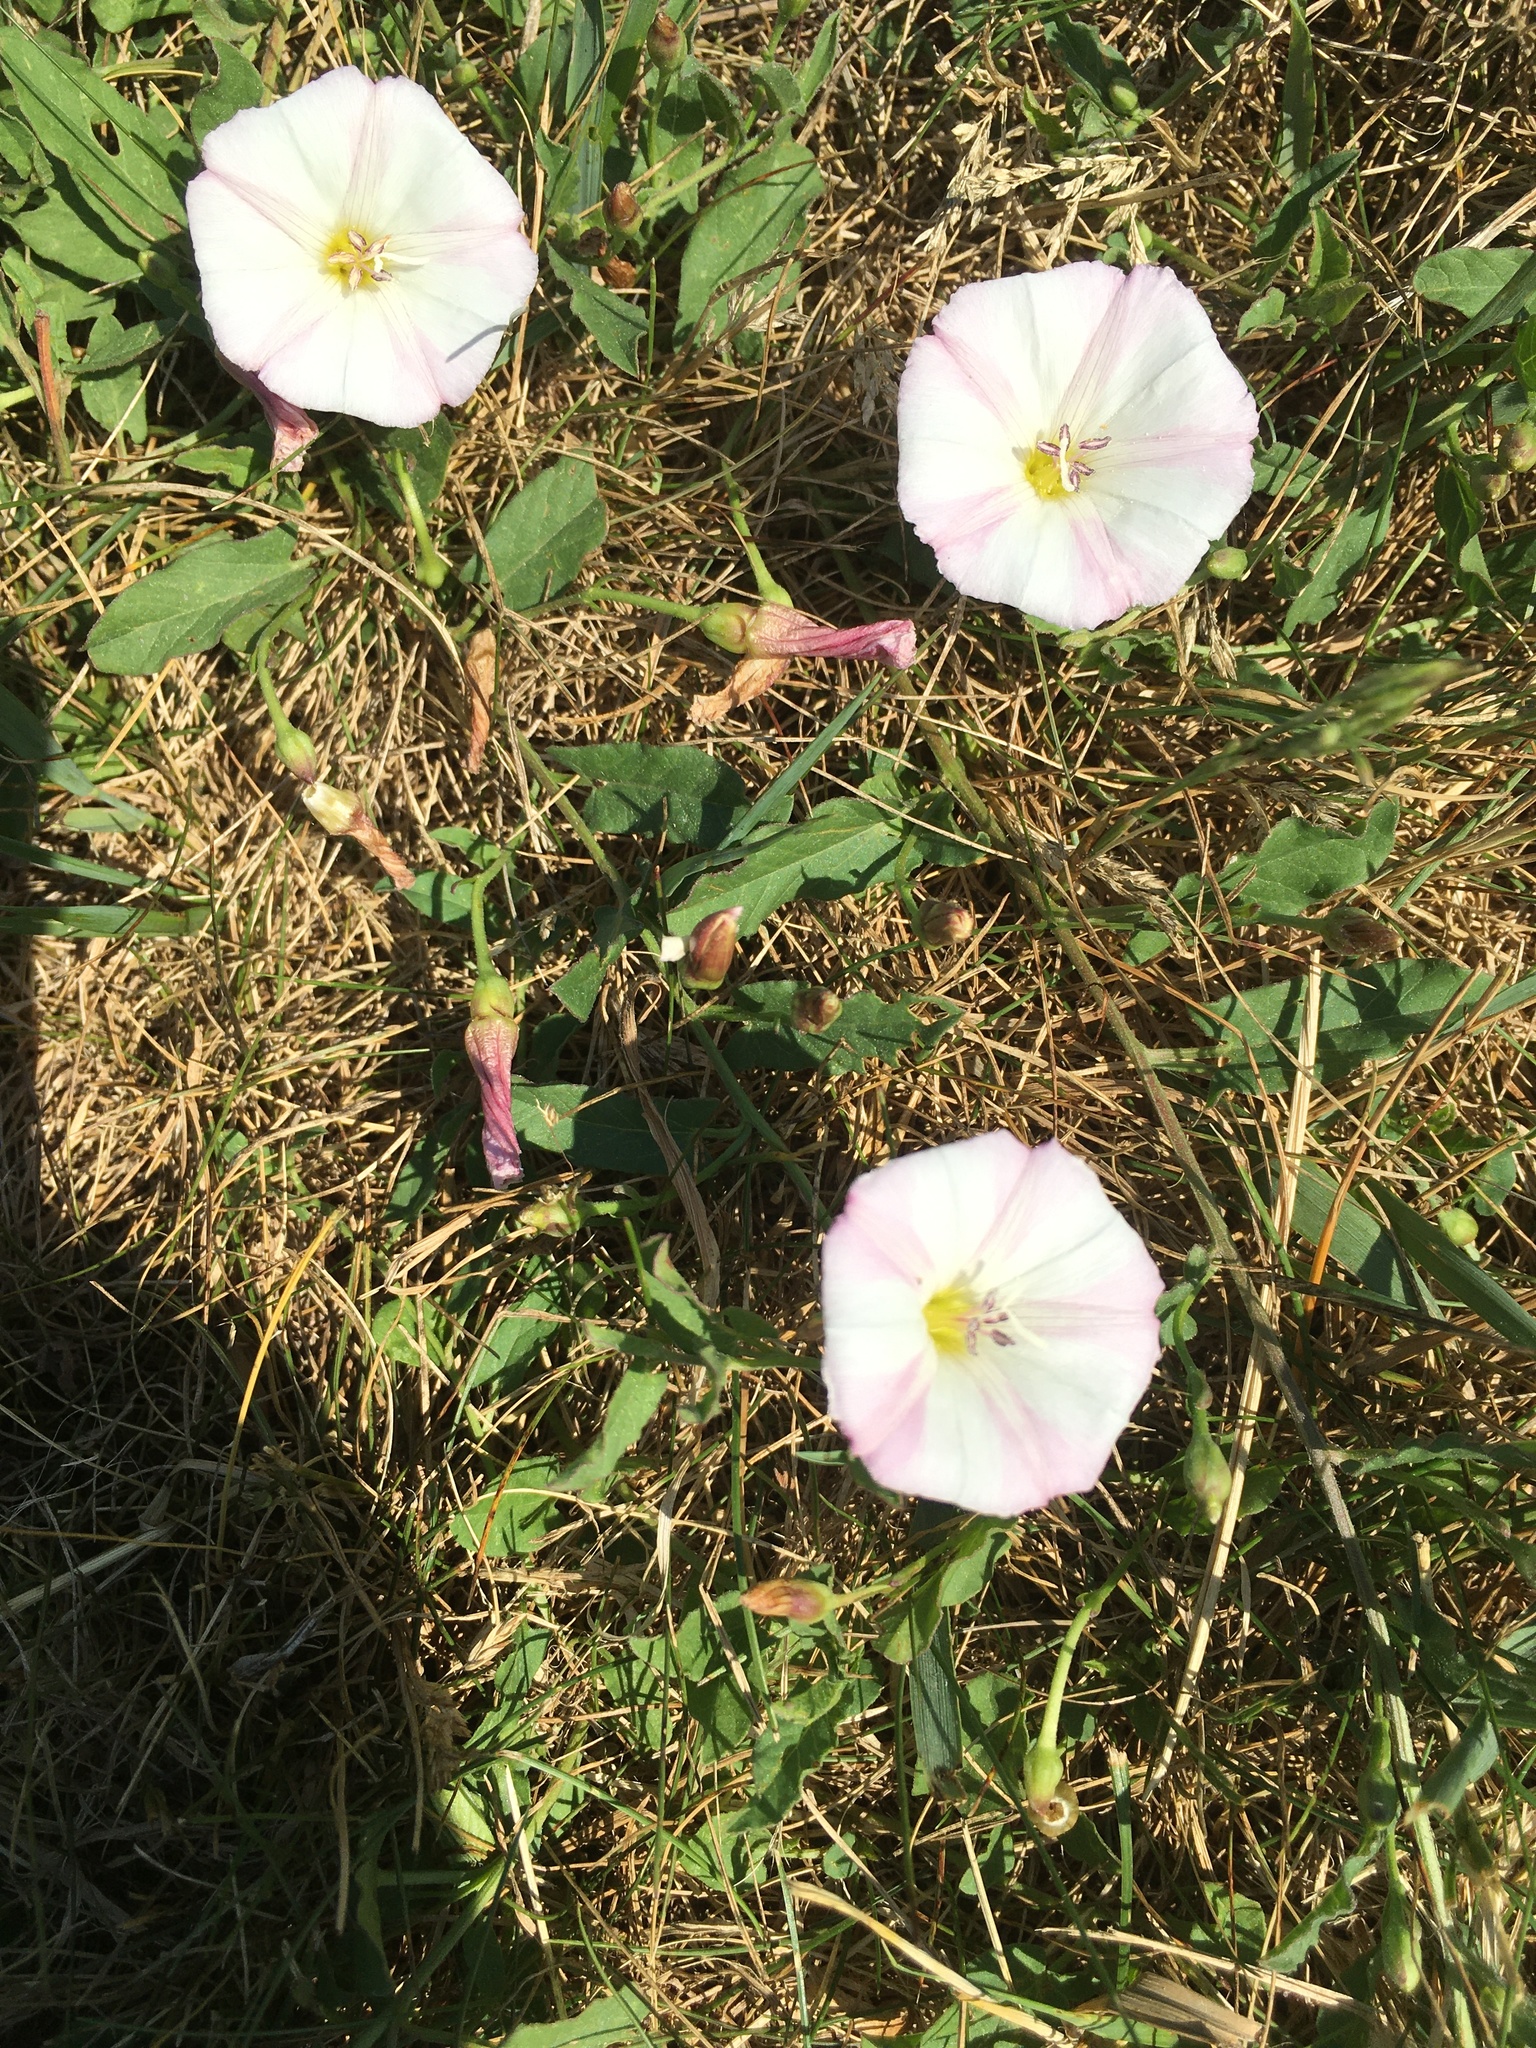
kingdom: Plantae
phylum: Tracheophyta
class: Magnoliopsida
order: Solanales
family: Convolvulaceae
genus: Convolvulus
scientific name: Convolvulus arvensis
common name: Field bindweed
